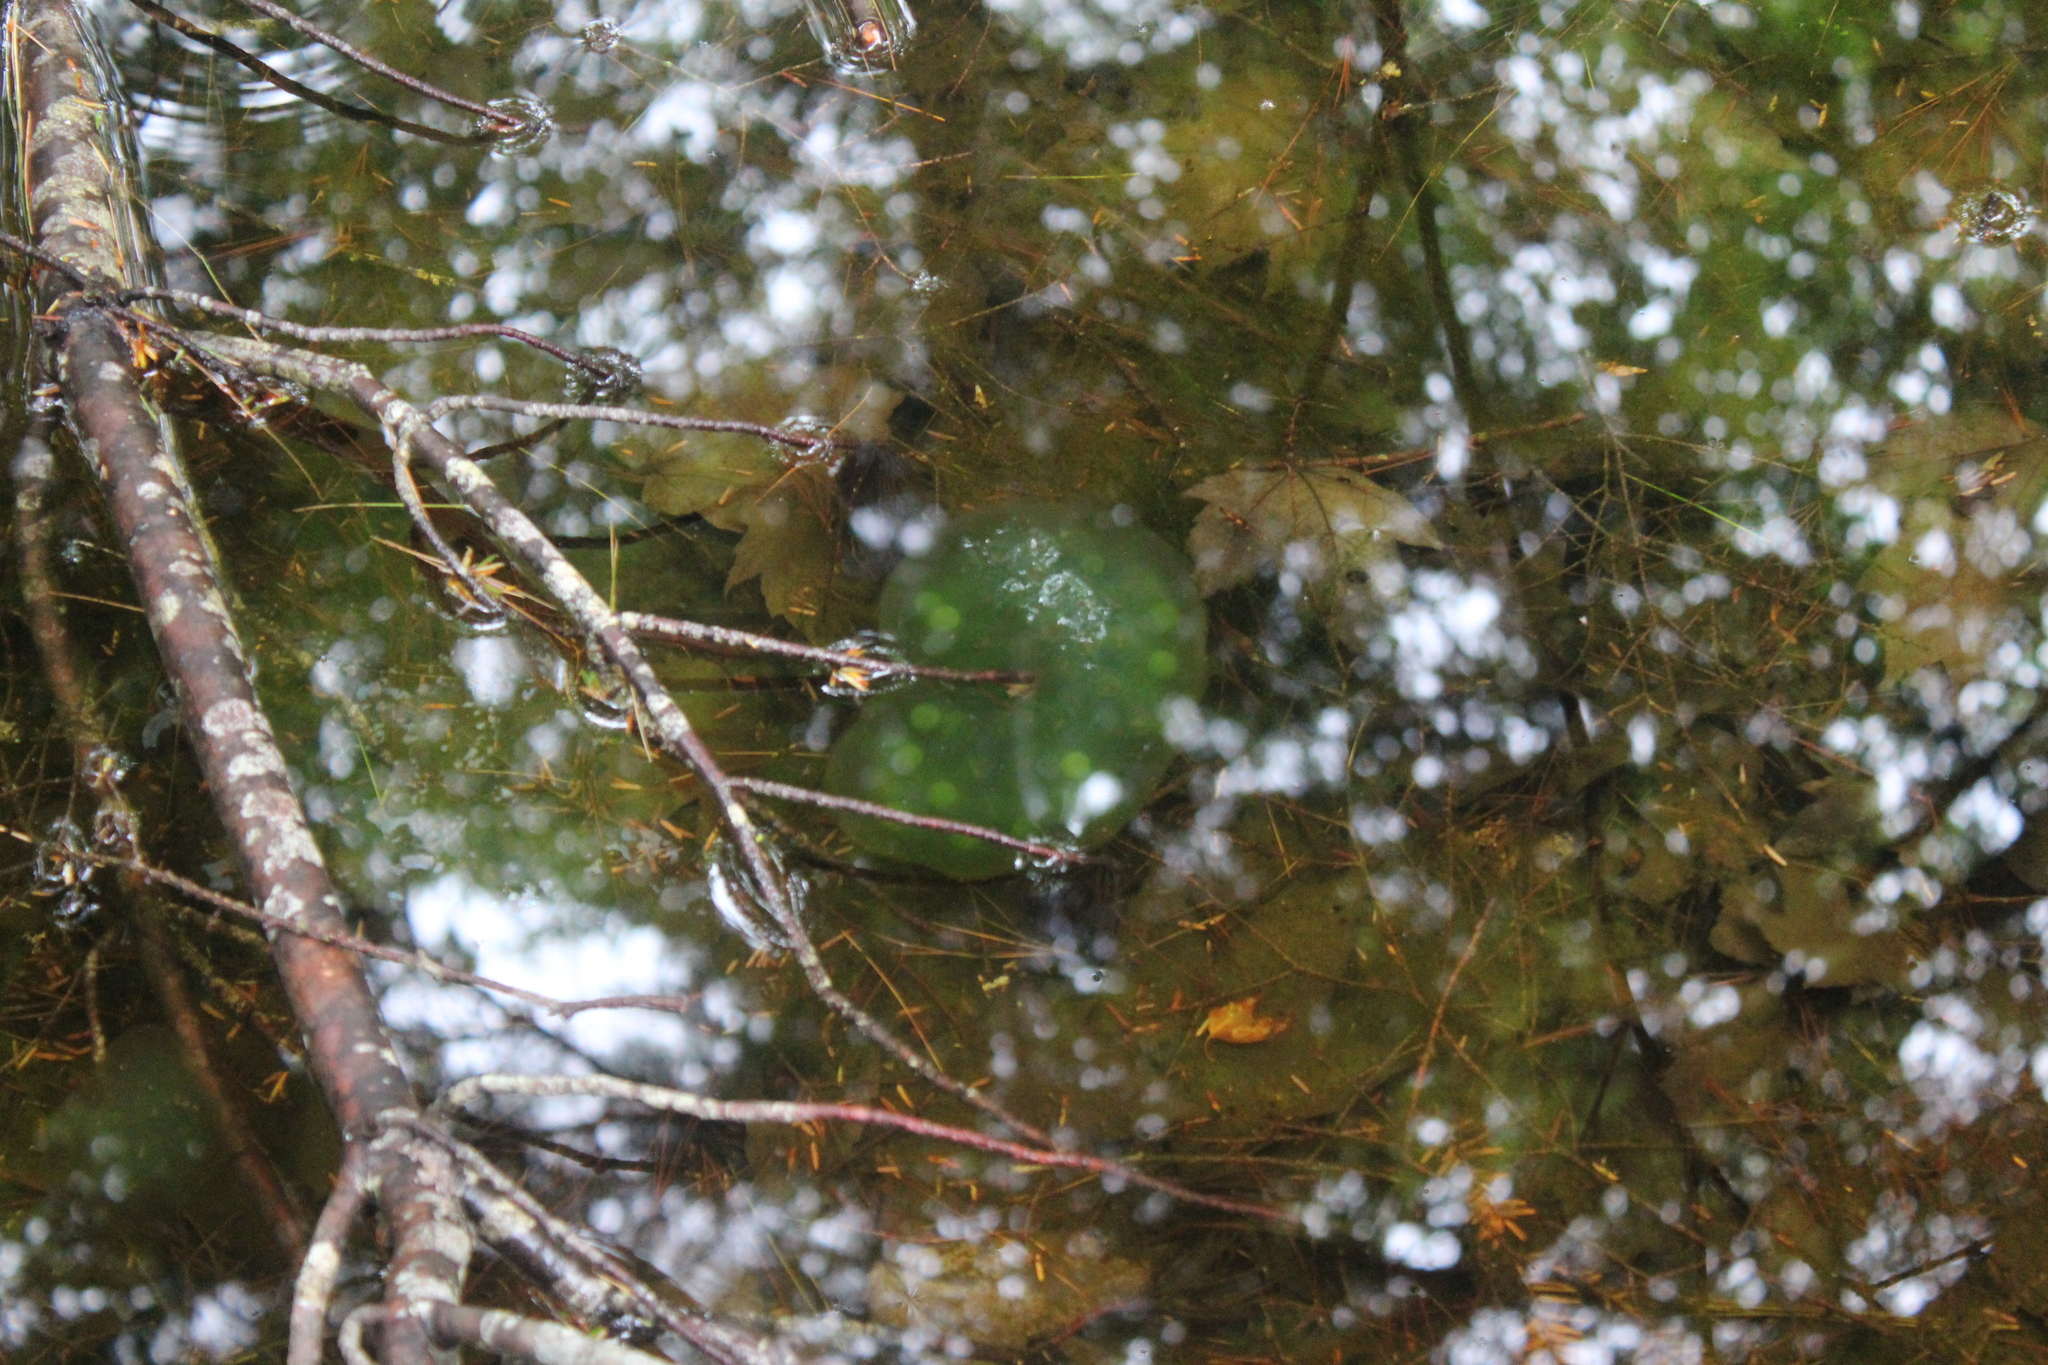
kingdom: Animalia
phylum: Chordata
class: Amphibia
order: Caudata
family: Ambystomatidae
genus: Ambystoma
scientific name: Ambystoma maculatum
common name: Spotted salamander
